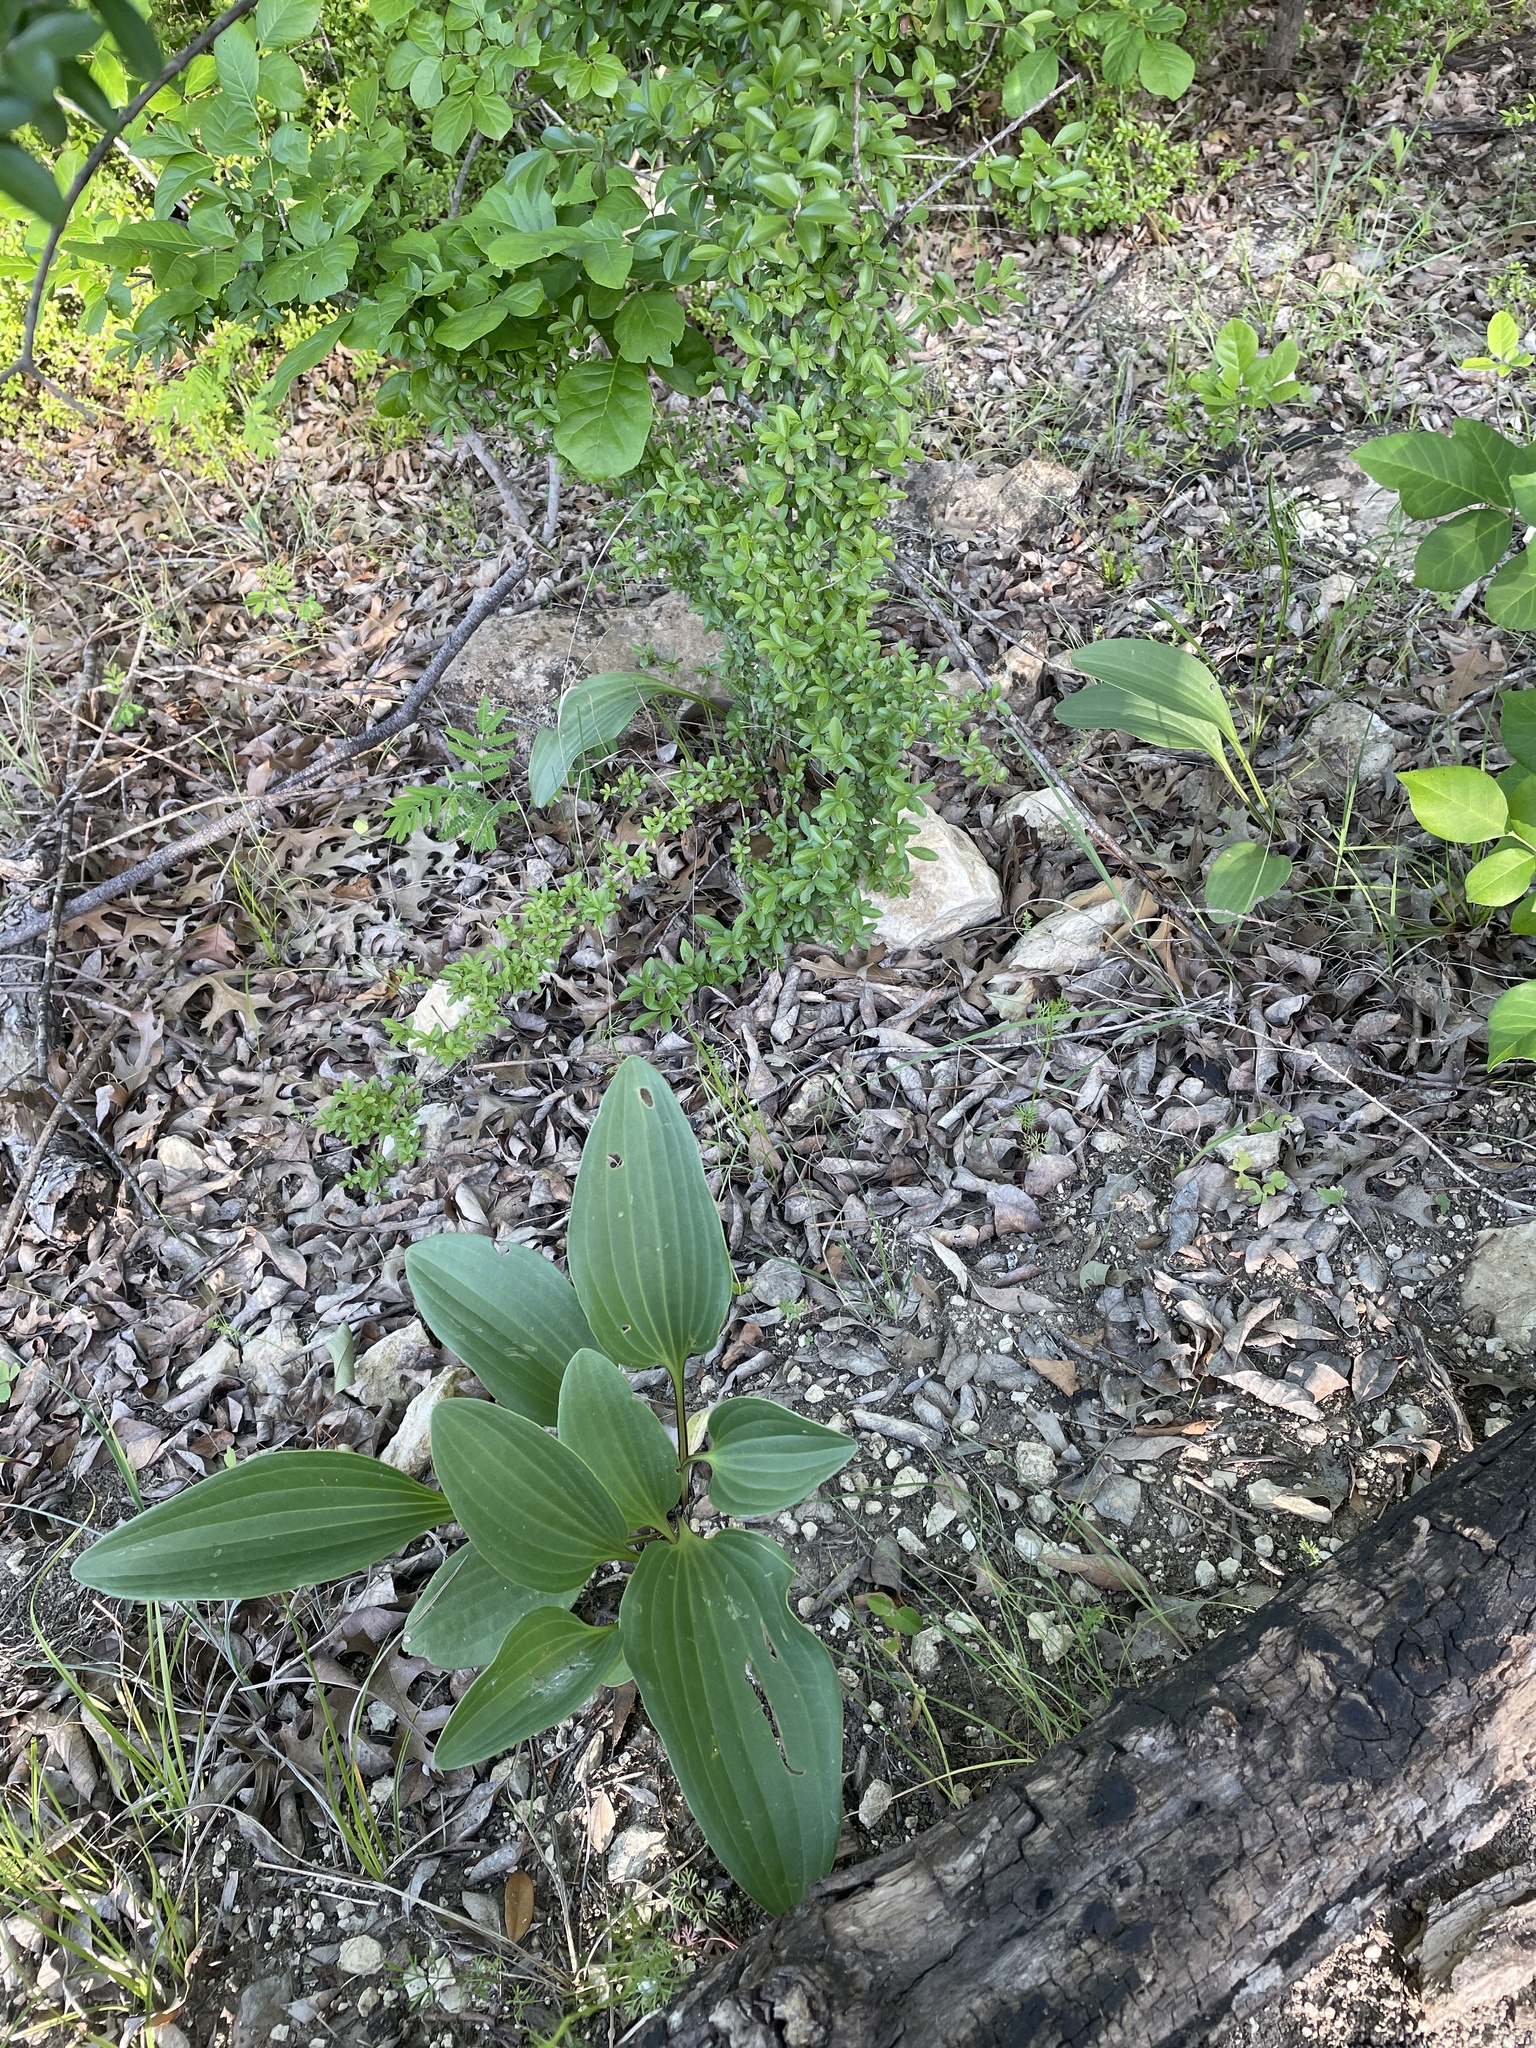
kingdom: Plantae
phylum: Tracheophyta
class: Magnoliopsida
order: Asterales
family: Asteraceae
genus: Arnoglossum
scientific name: Arnoglossum plantagineum
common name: Groove-stemmed indian-plantain
